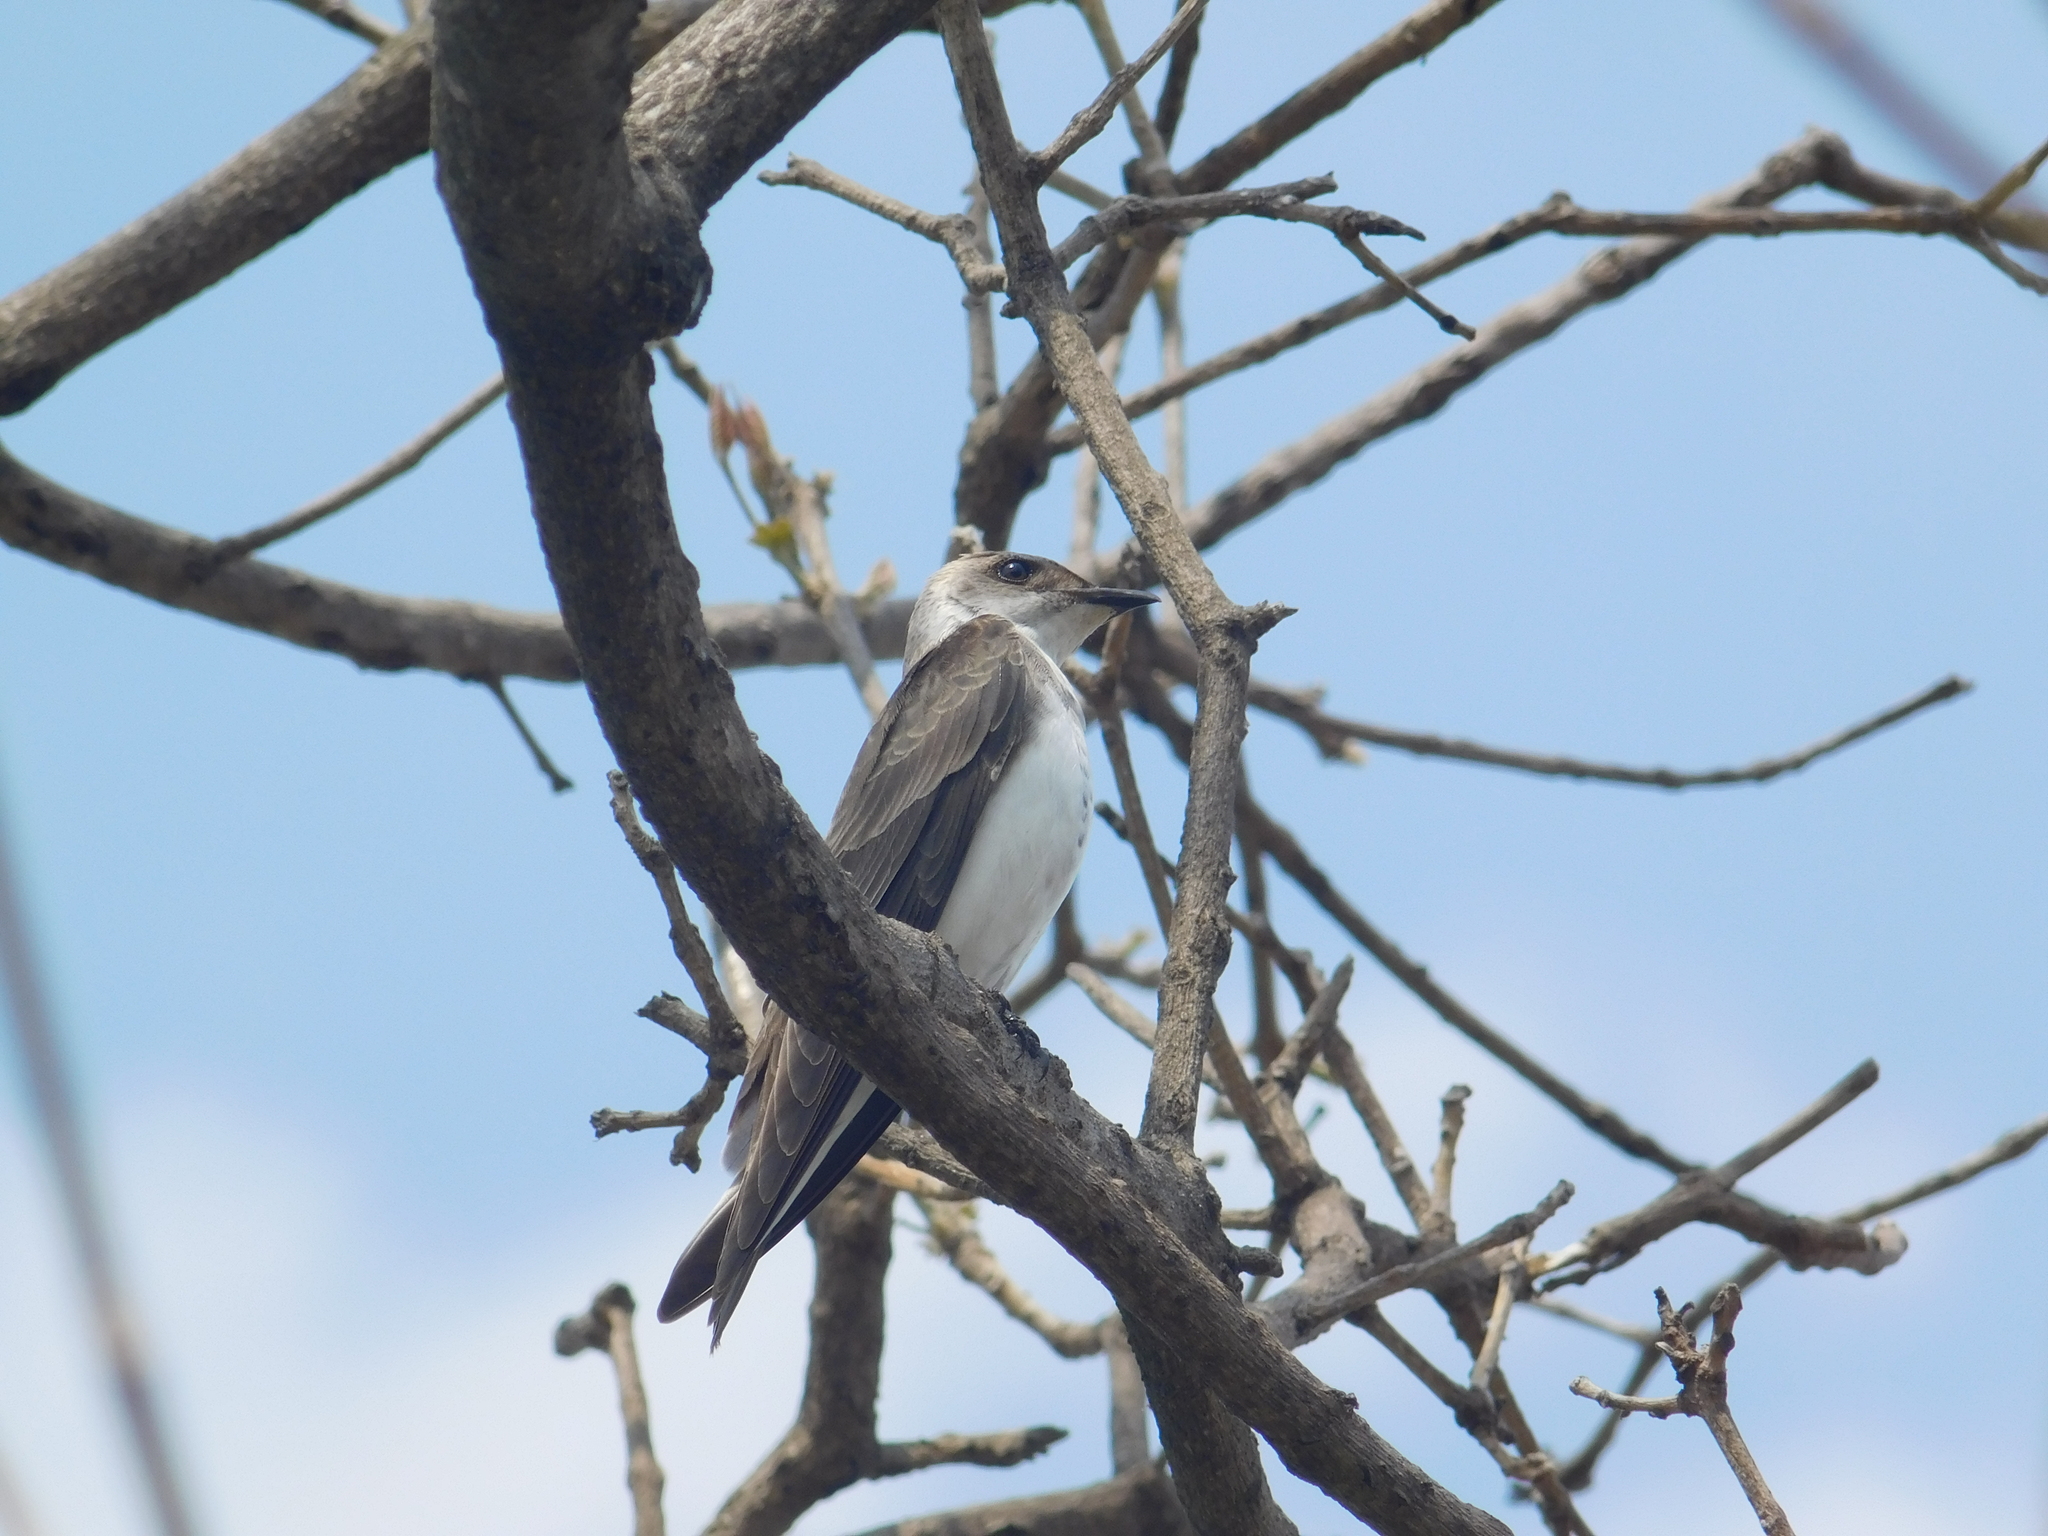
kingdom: Animalia
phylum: Chordata
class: Aves
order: Passeriformes
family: Hirundinidae
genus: Progne
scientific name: Progne tapera
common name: Brown-chested martin
